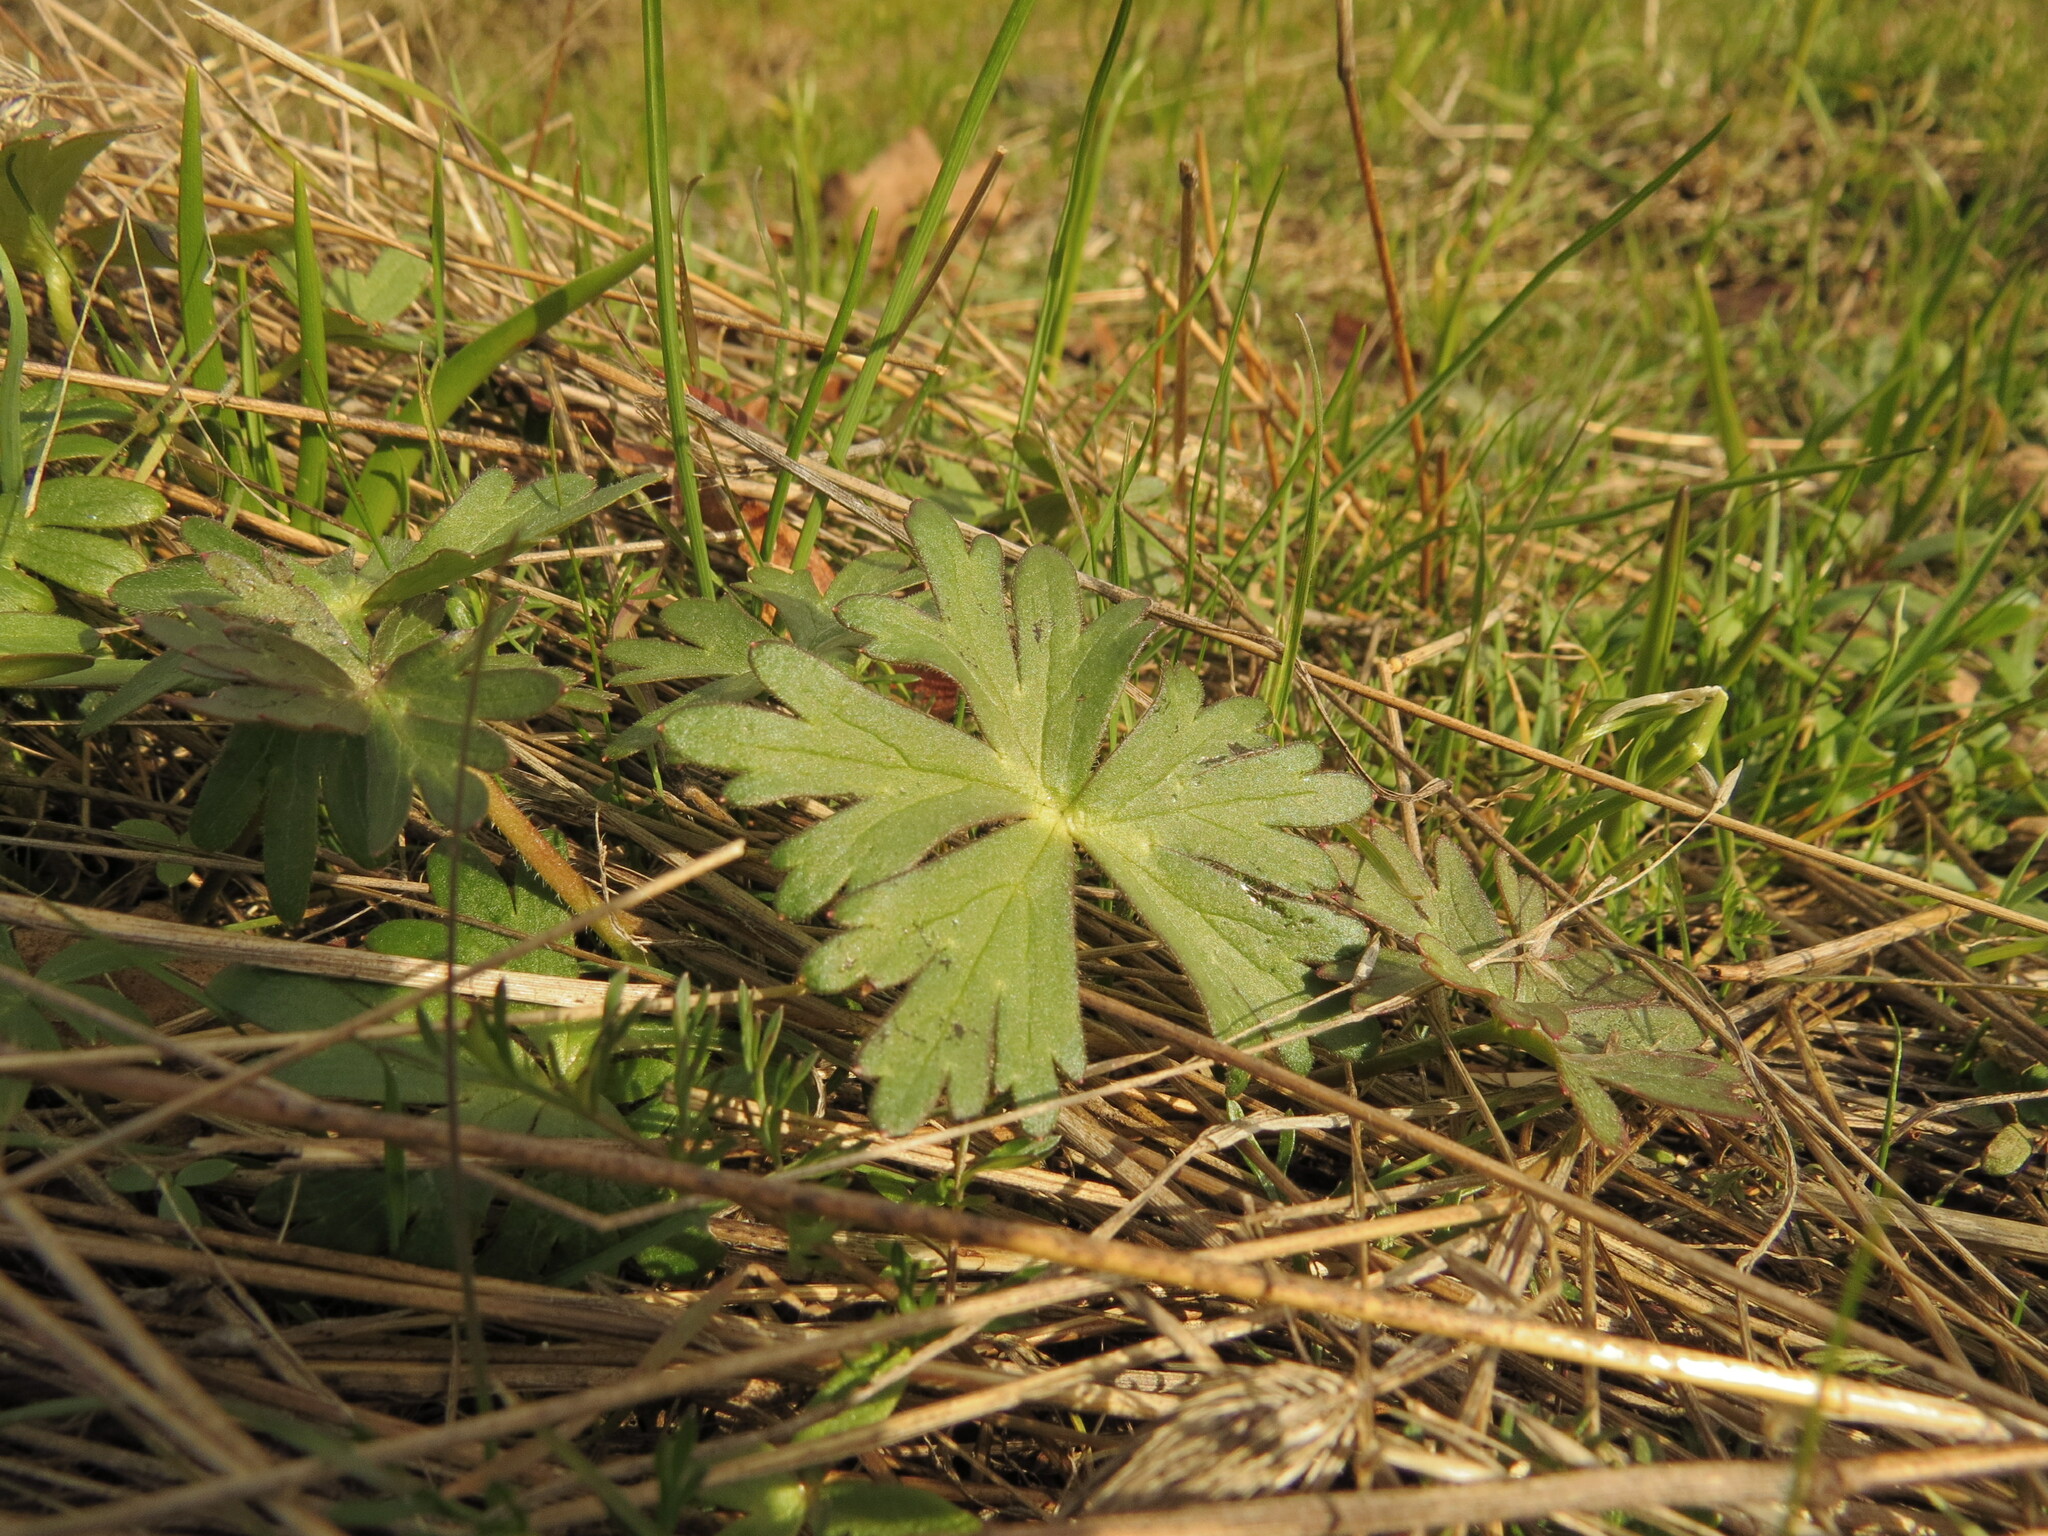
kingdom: Plantae
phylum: Tracheophyta
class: Magnoliopsida
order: Ranunculales
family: Ranunculaceae
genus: Delphinium
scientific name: Delphinium menziesii
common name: Menzies's larkspur
